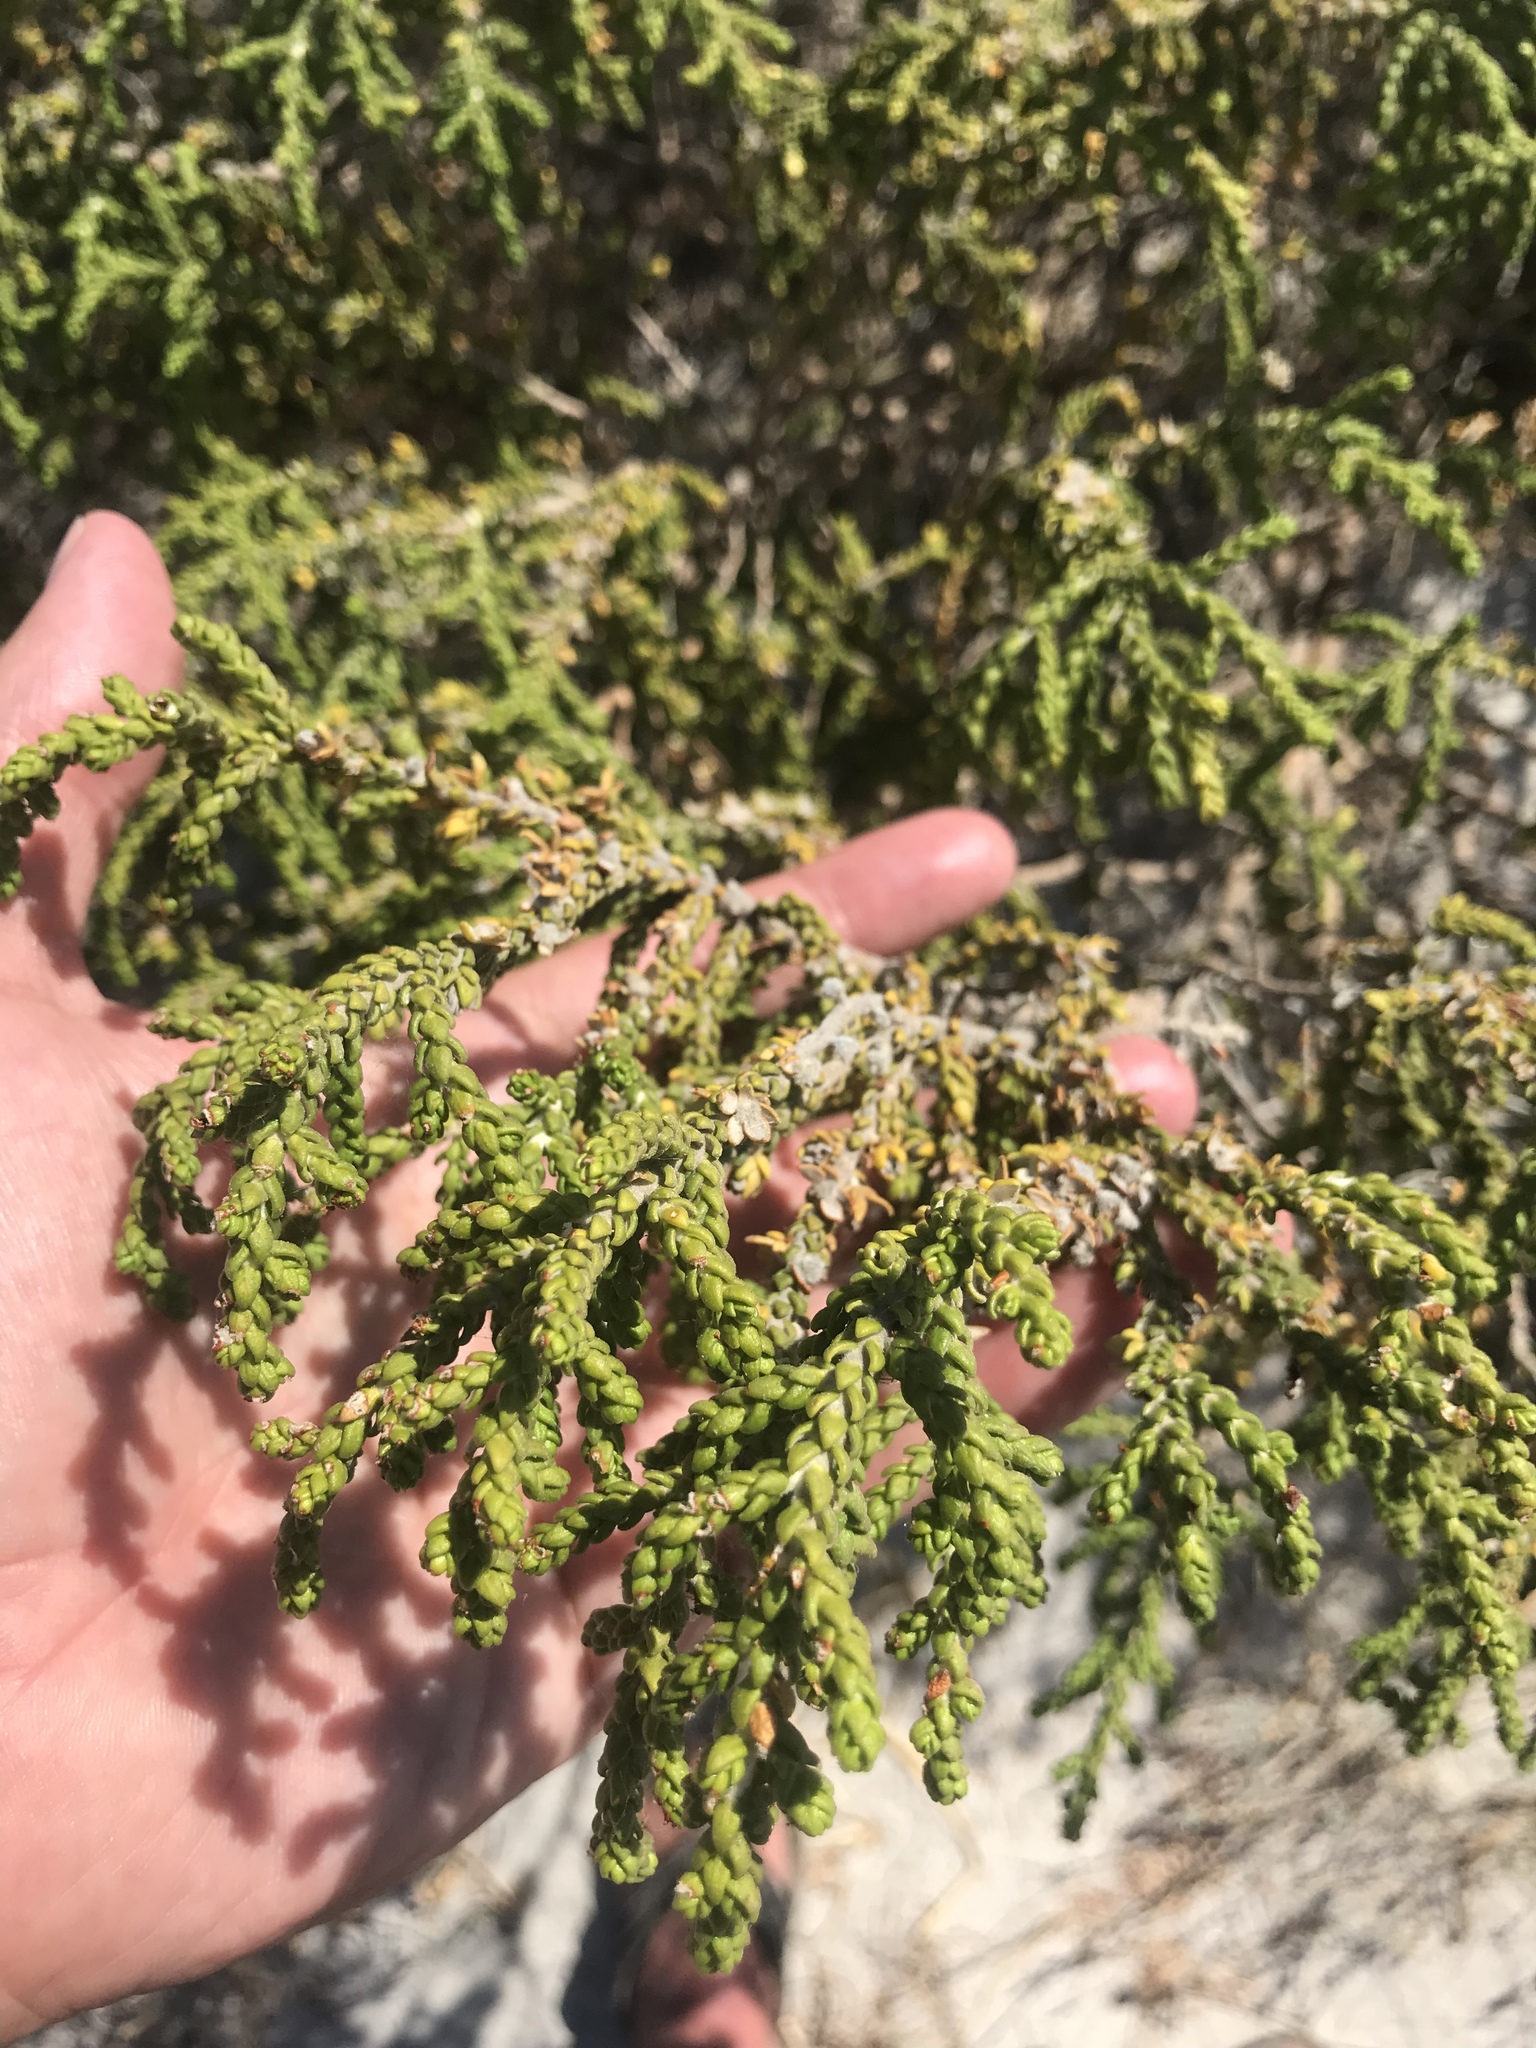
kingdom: Plantae
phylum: Tracheophyta
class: Magnoliopsida
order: Malvales
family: Thymelaeaceae
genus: Thymelaea
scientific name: Thymelaea hirsuta
